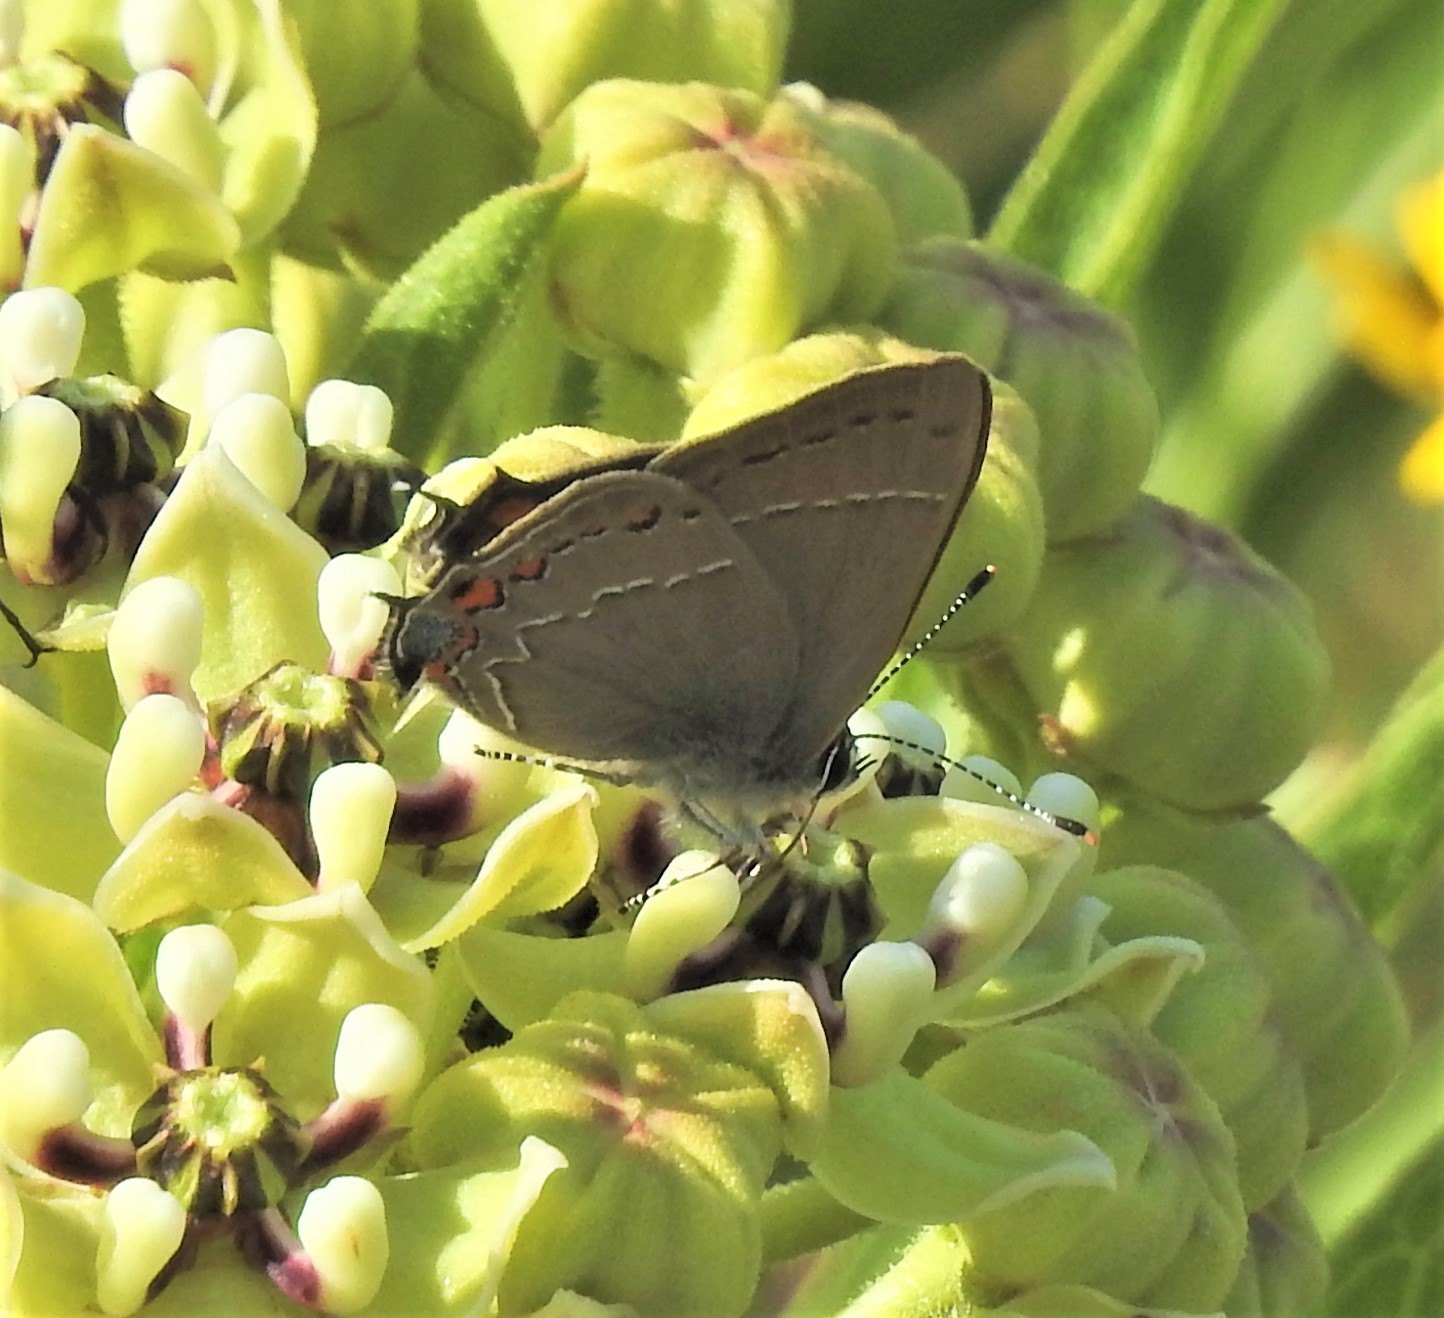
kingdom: Animalia
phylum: Arthropoda
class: Insecta
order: Lepidoptera
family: Lycaenidae
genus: Fixsenia
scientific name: Fixsenia favonius
